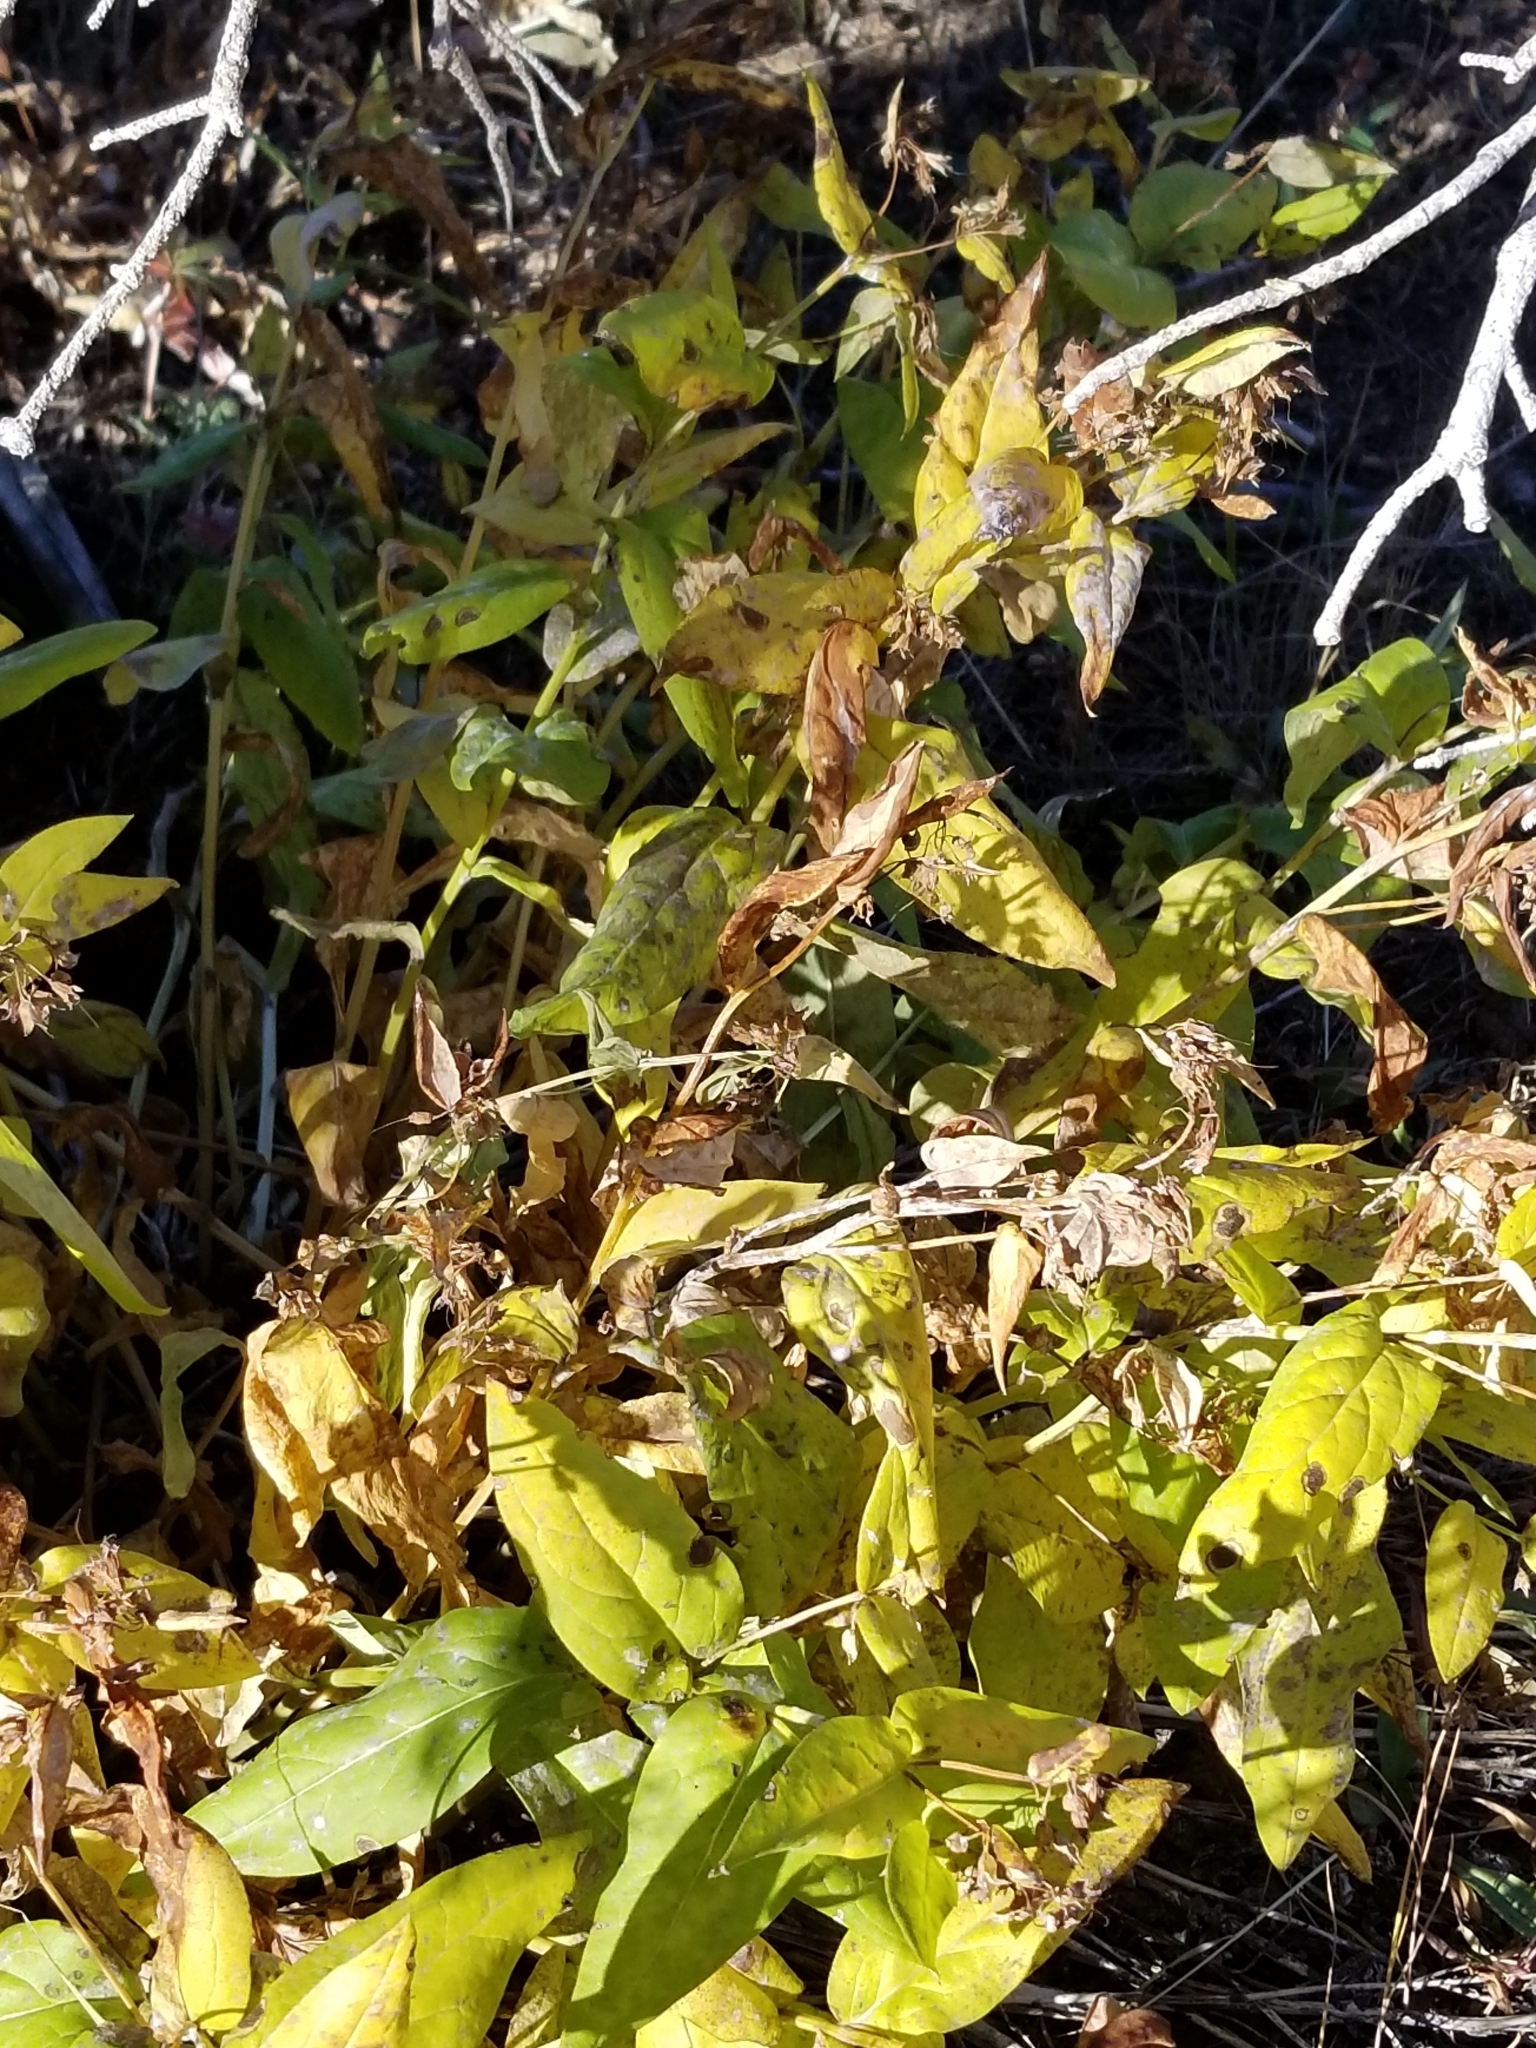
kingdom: Plantae
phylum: Tracheophyta
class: Magnoliopsida
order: Boraginales
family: Boraginaceae
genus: Mertensia
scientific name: Mertensia arizonica
